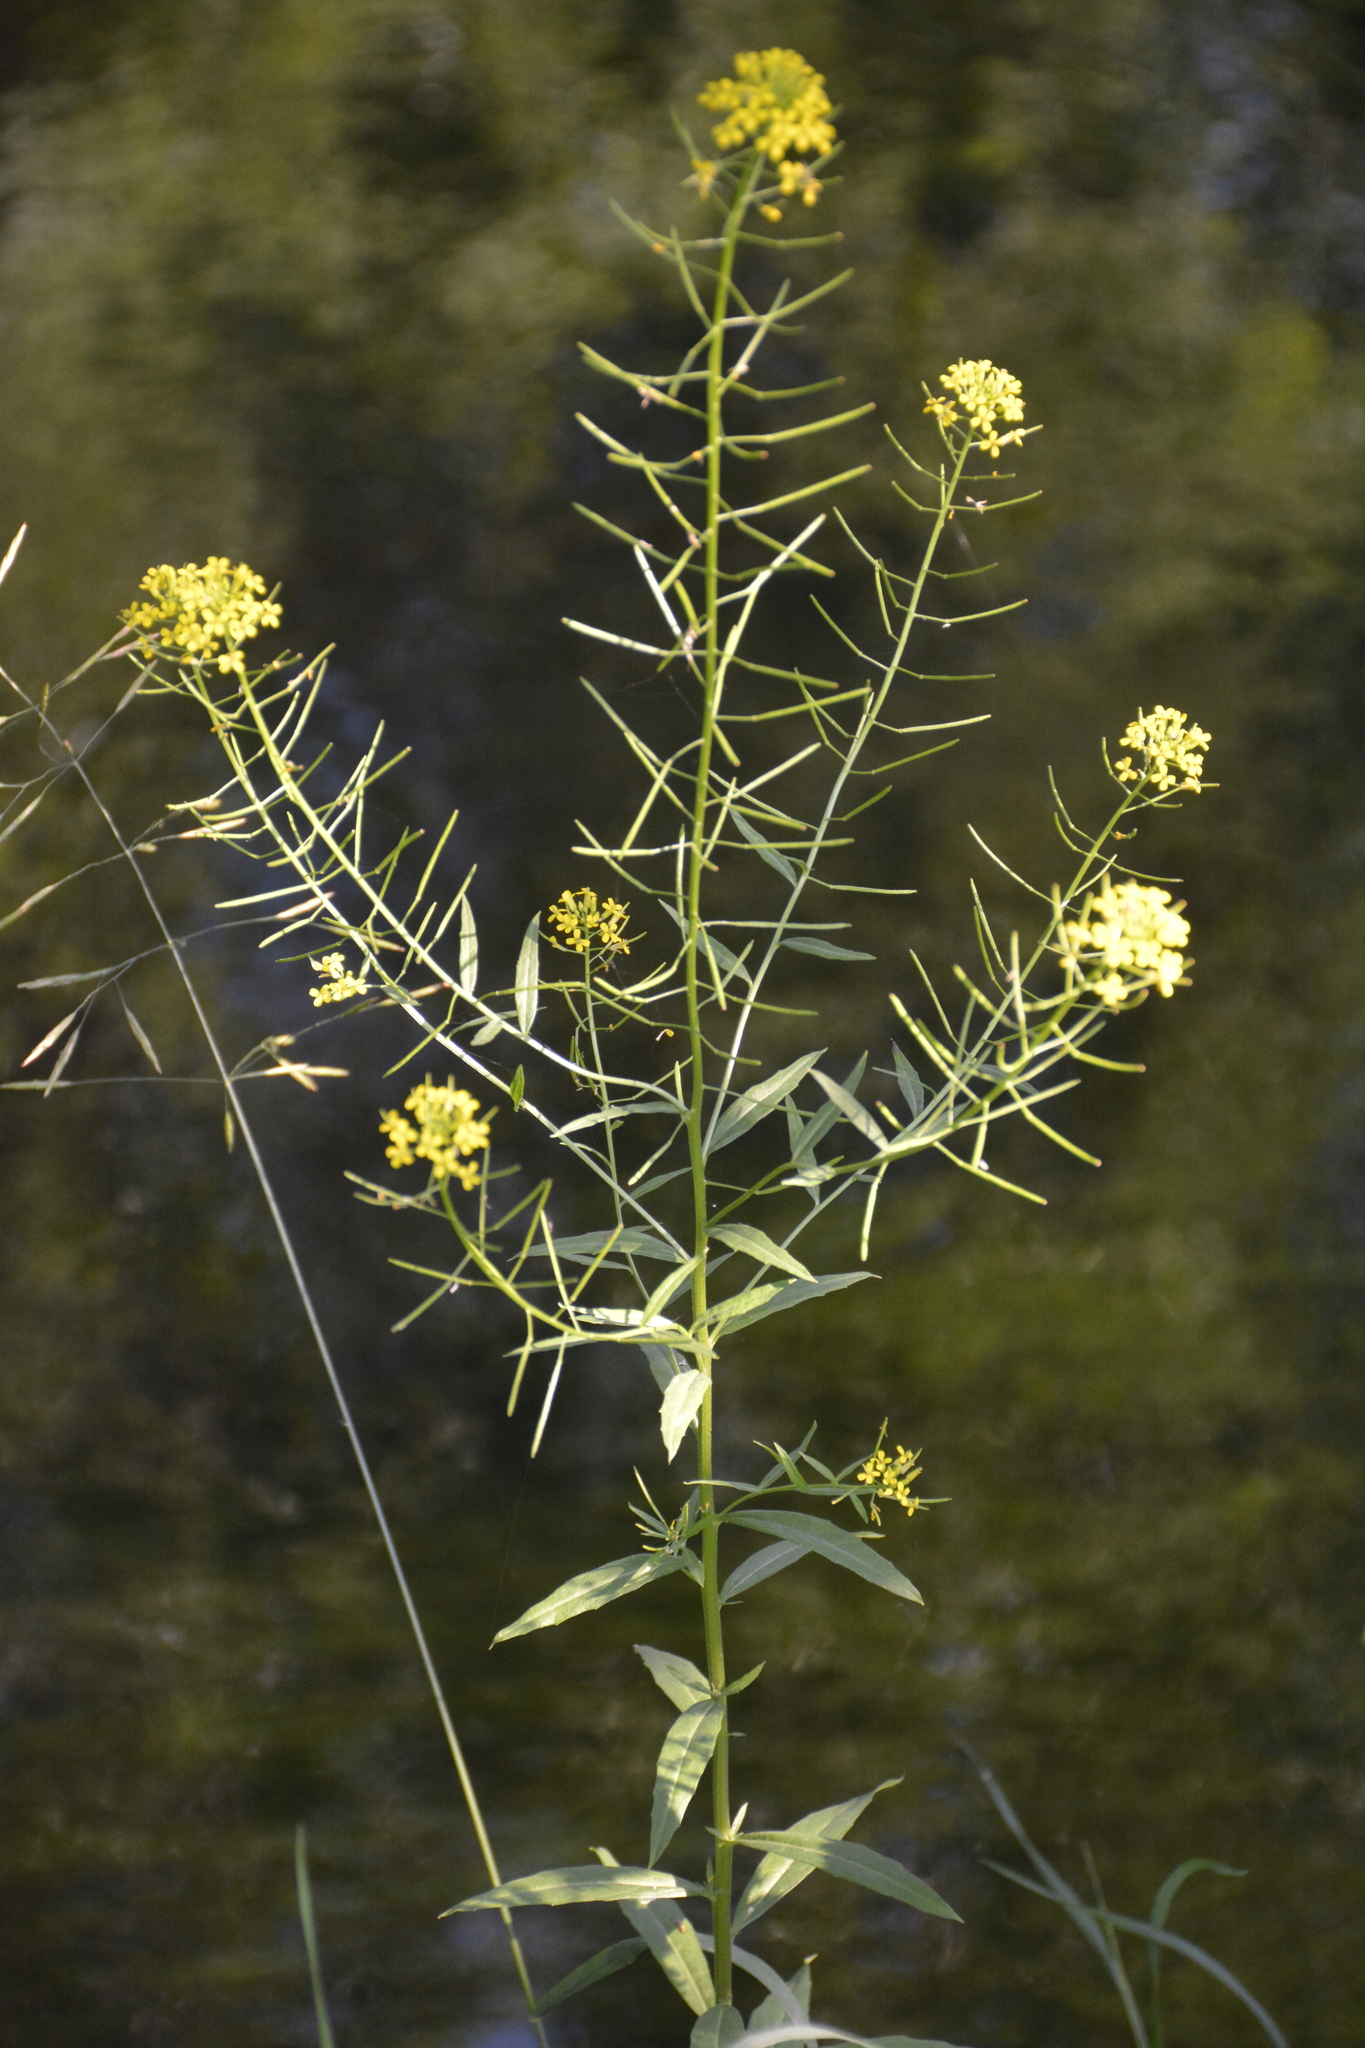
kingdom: Plantae
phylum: Tracheophyta
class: Magnoliopsida
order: Brassicales
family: Brassicaceae
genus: Erysimum
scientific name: Erysimum cheiranthoides
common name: Treacle mustard
